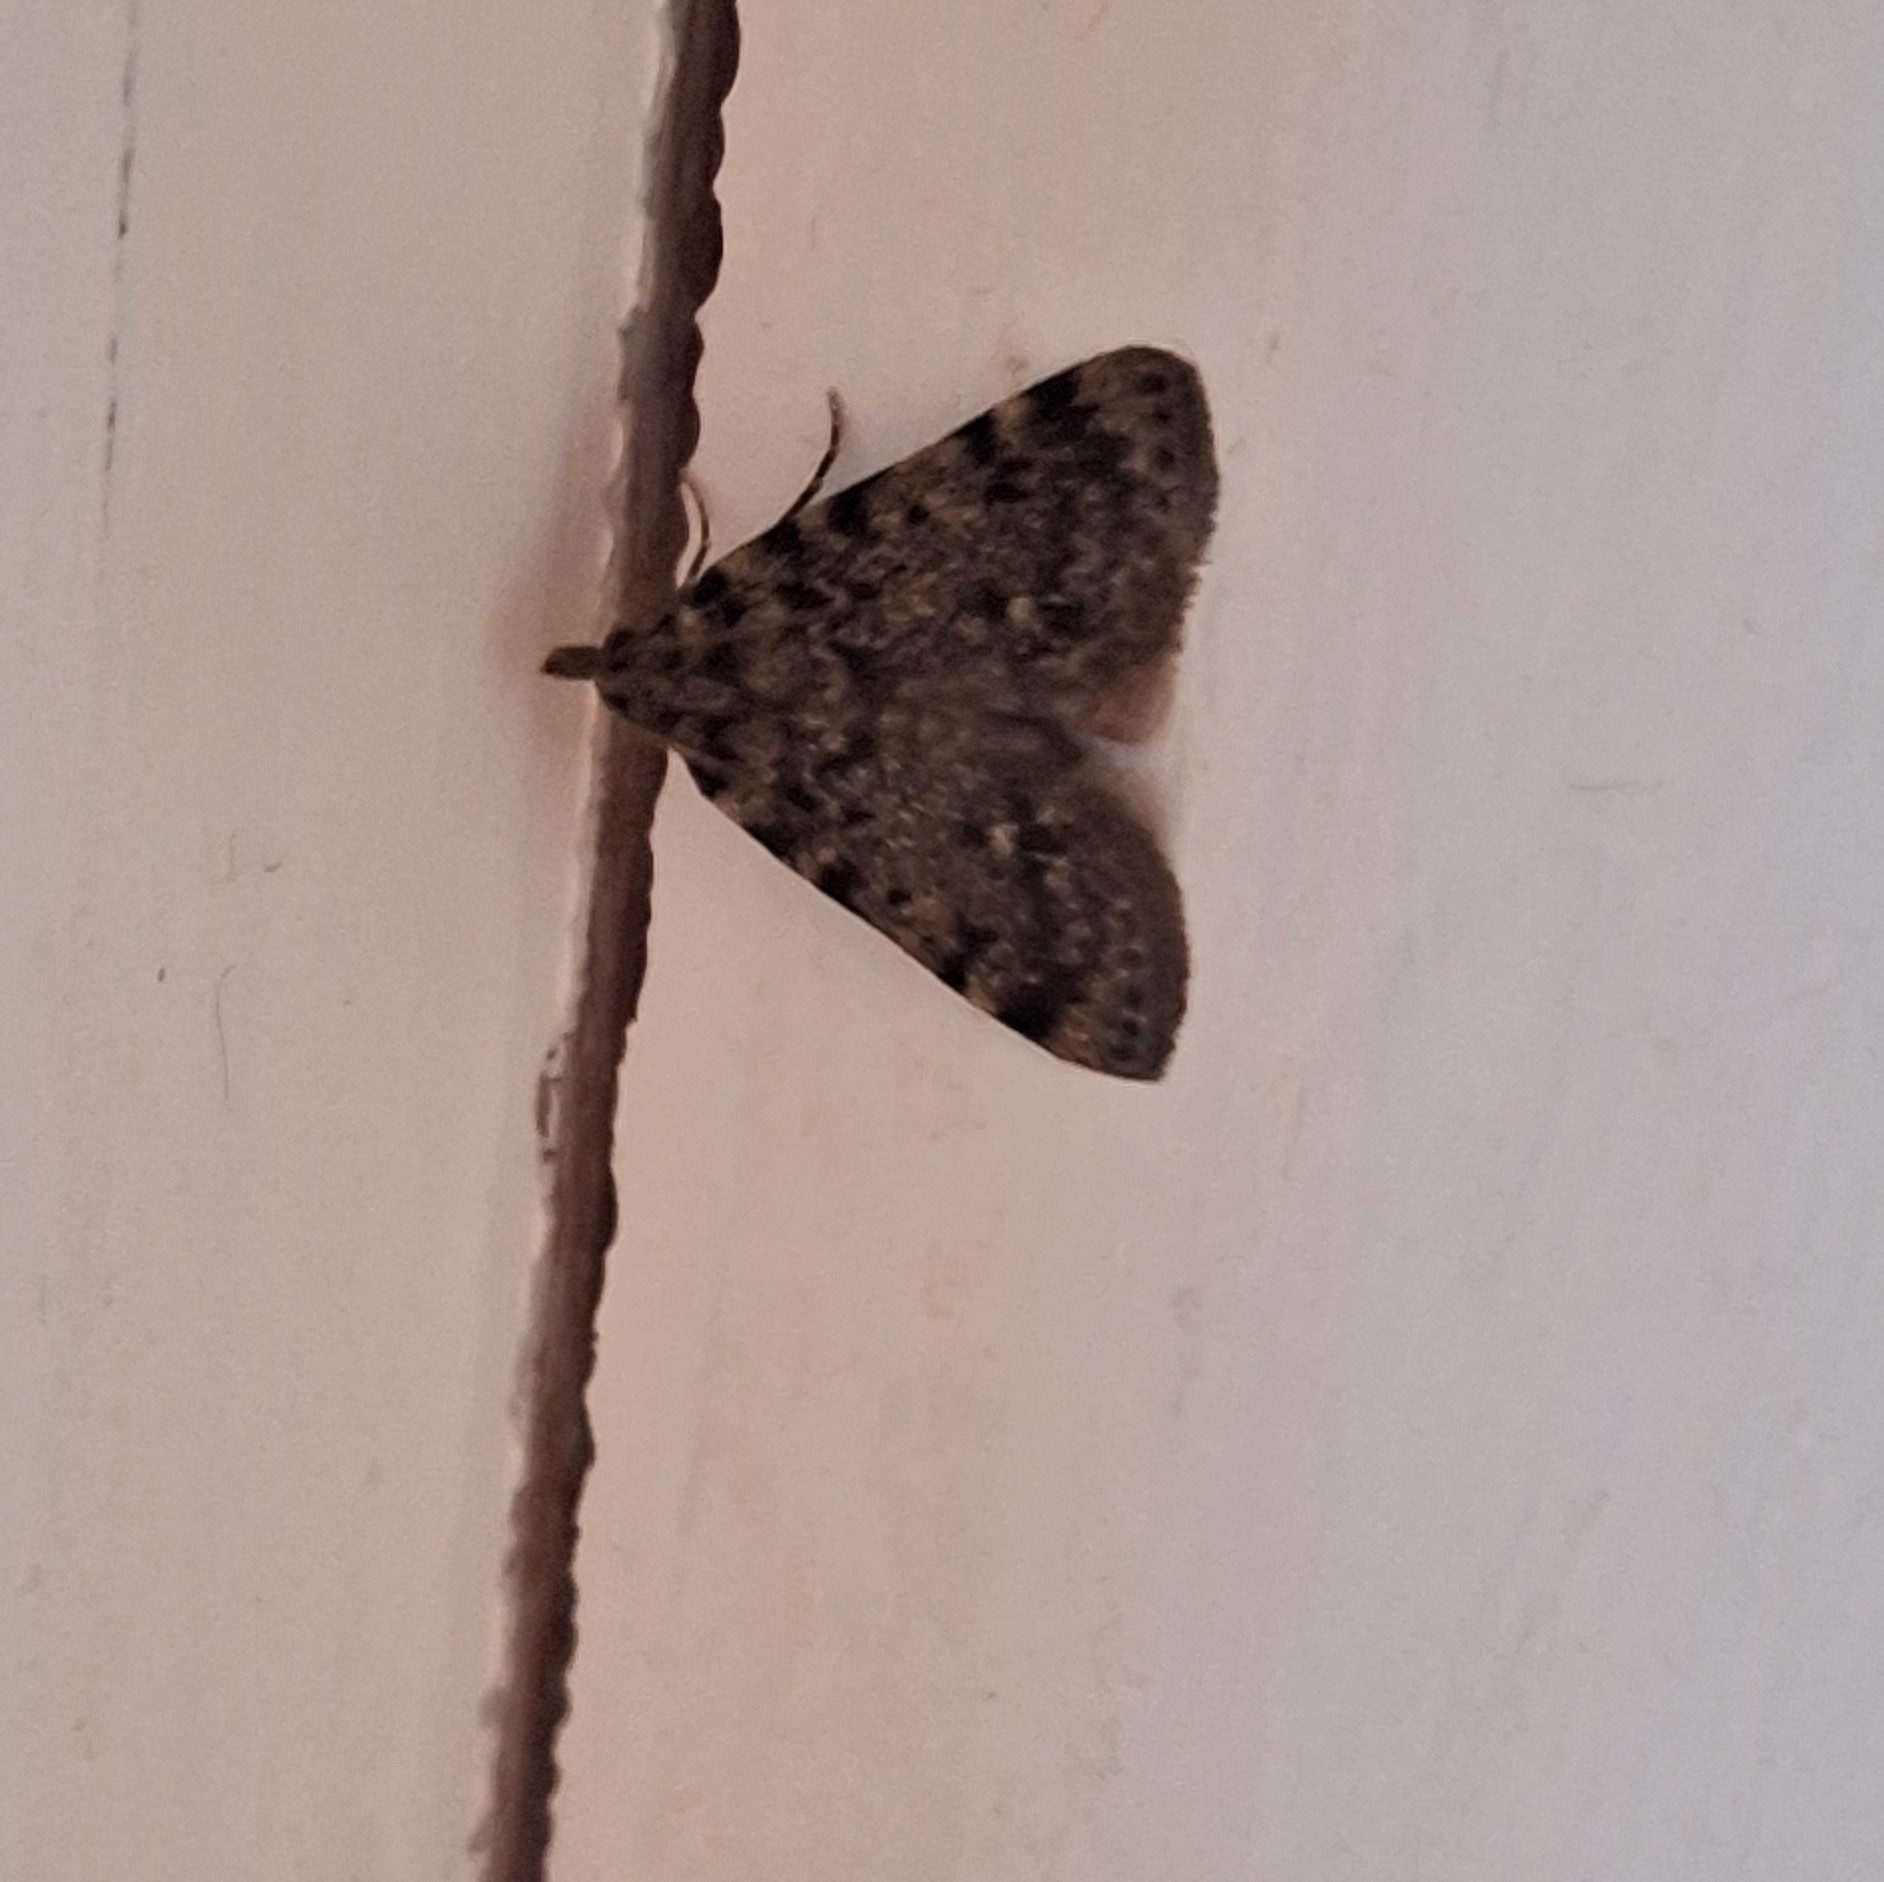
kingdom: Animalia
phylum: Arthropoda
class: Insecta
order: Lepidoptera
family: Pyralidae
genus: Aglossa
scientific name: Aglossa pinguinalis
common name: Large tabby
